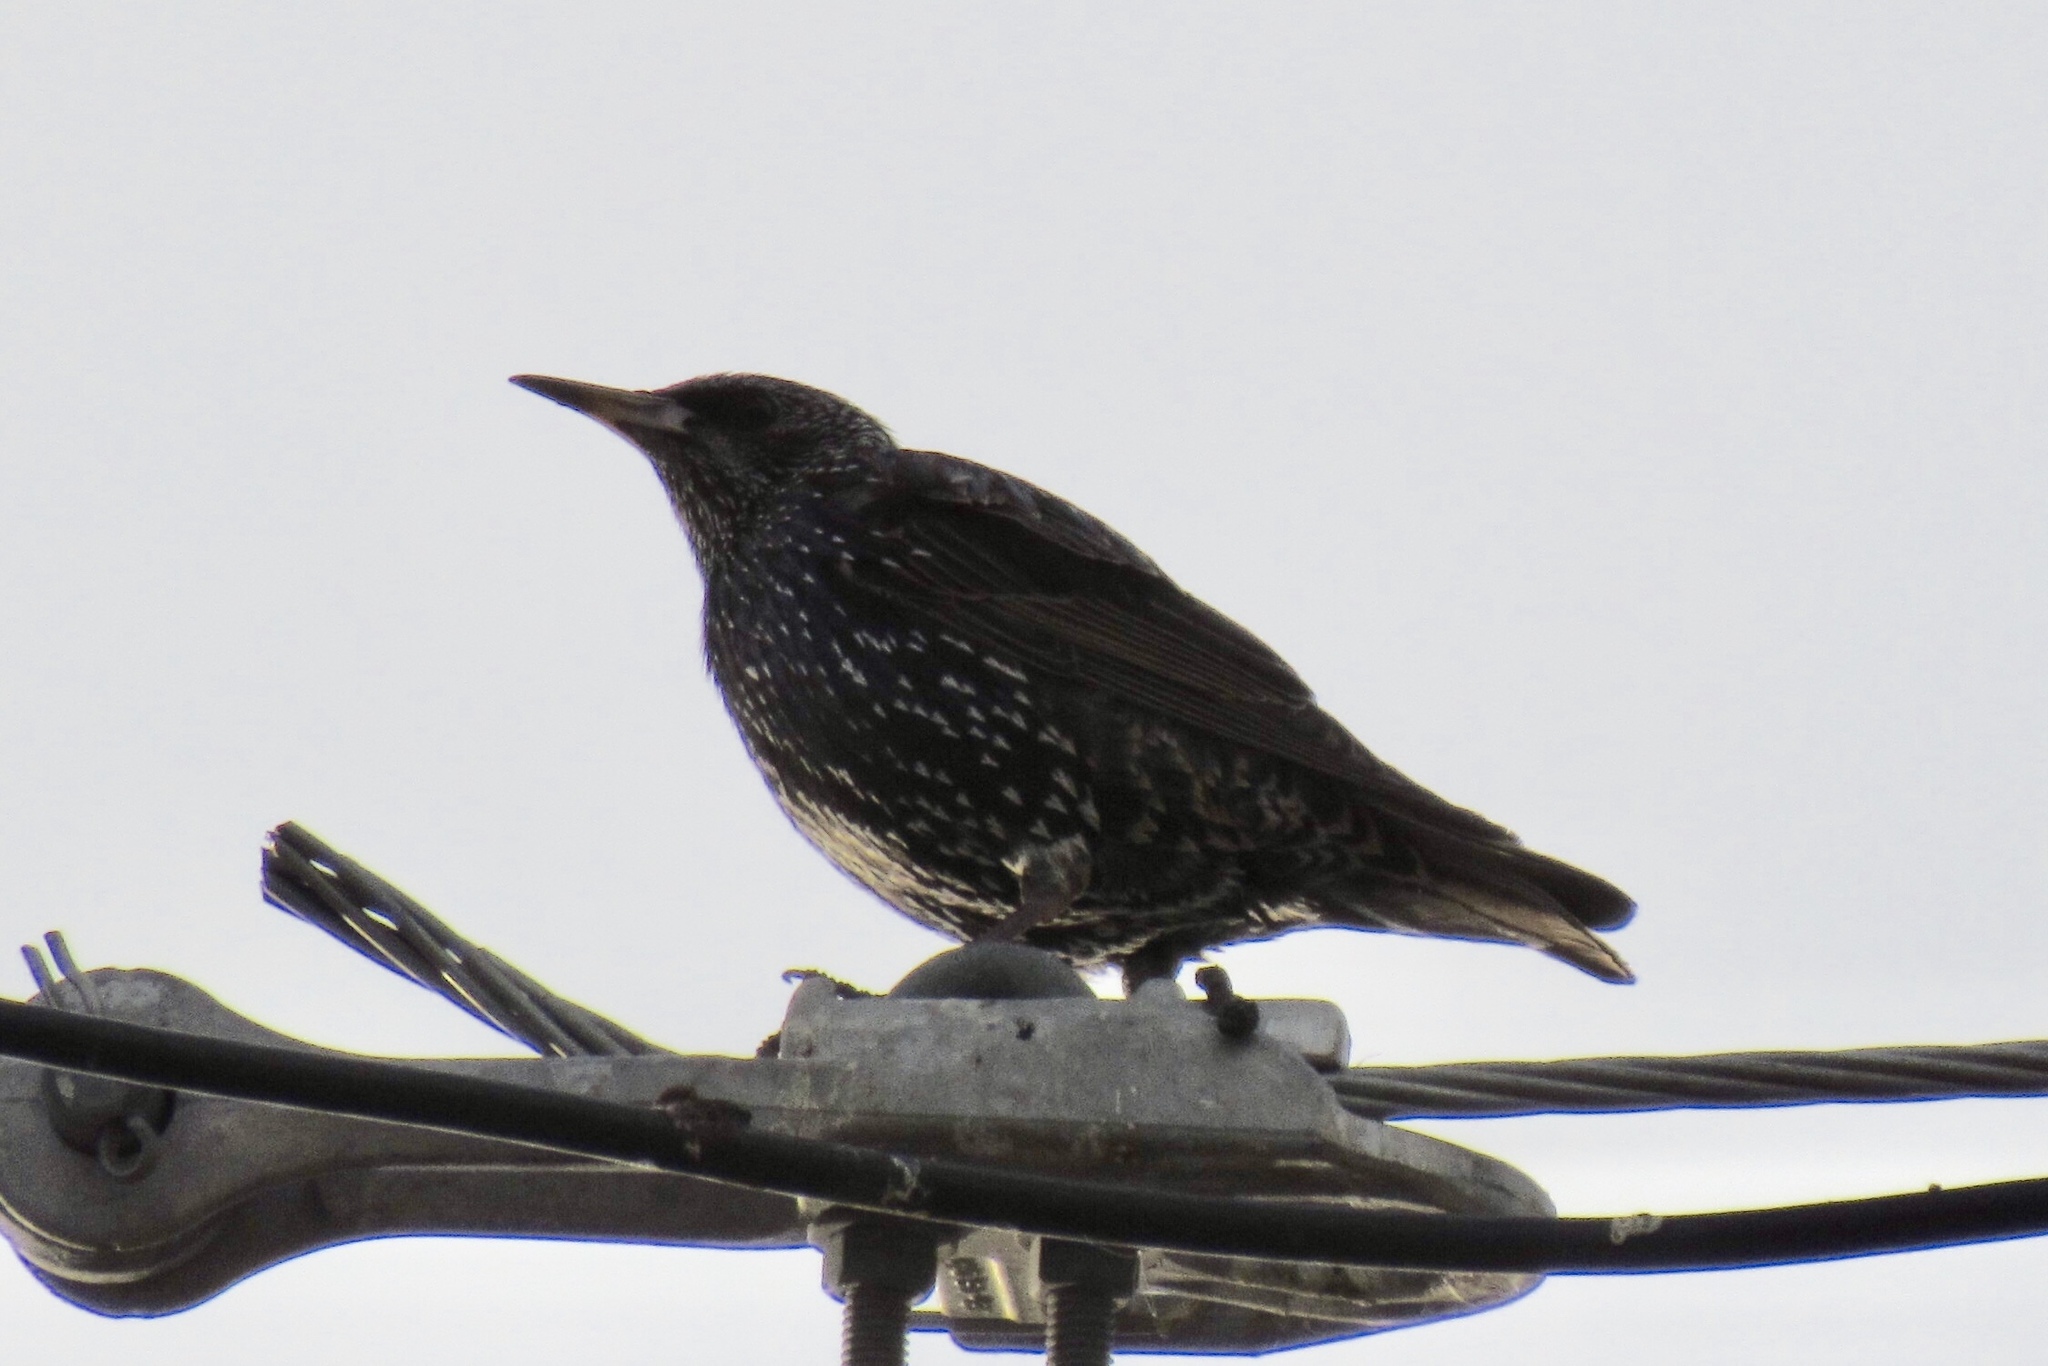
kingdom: Animalia
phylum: Chordata
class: Aves
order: Passeriformes
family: Sturnidae
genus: Sturnus
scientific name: Sturnus vulgaris
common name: Common starling
